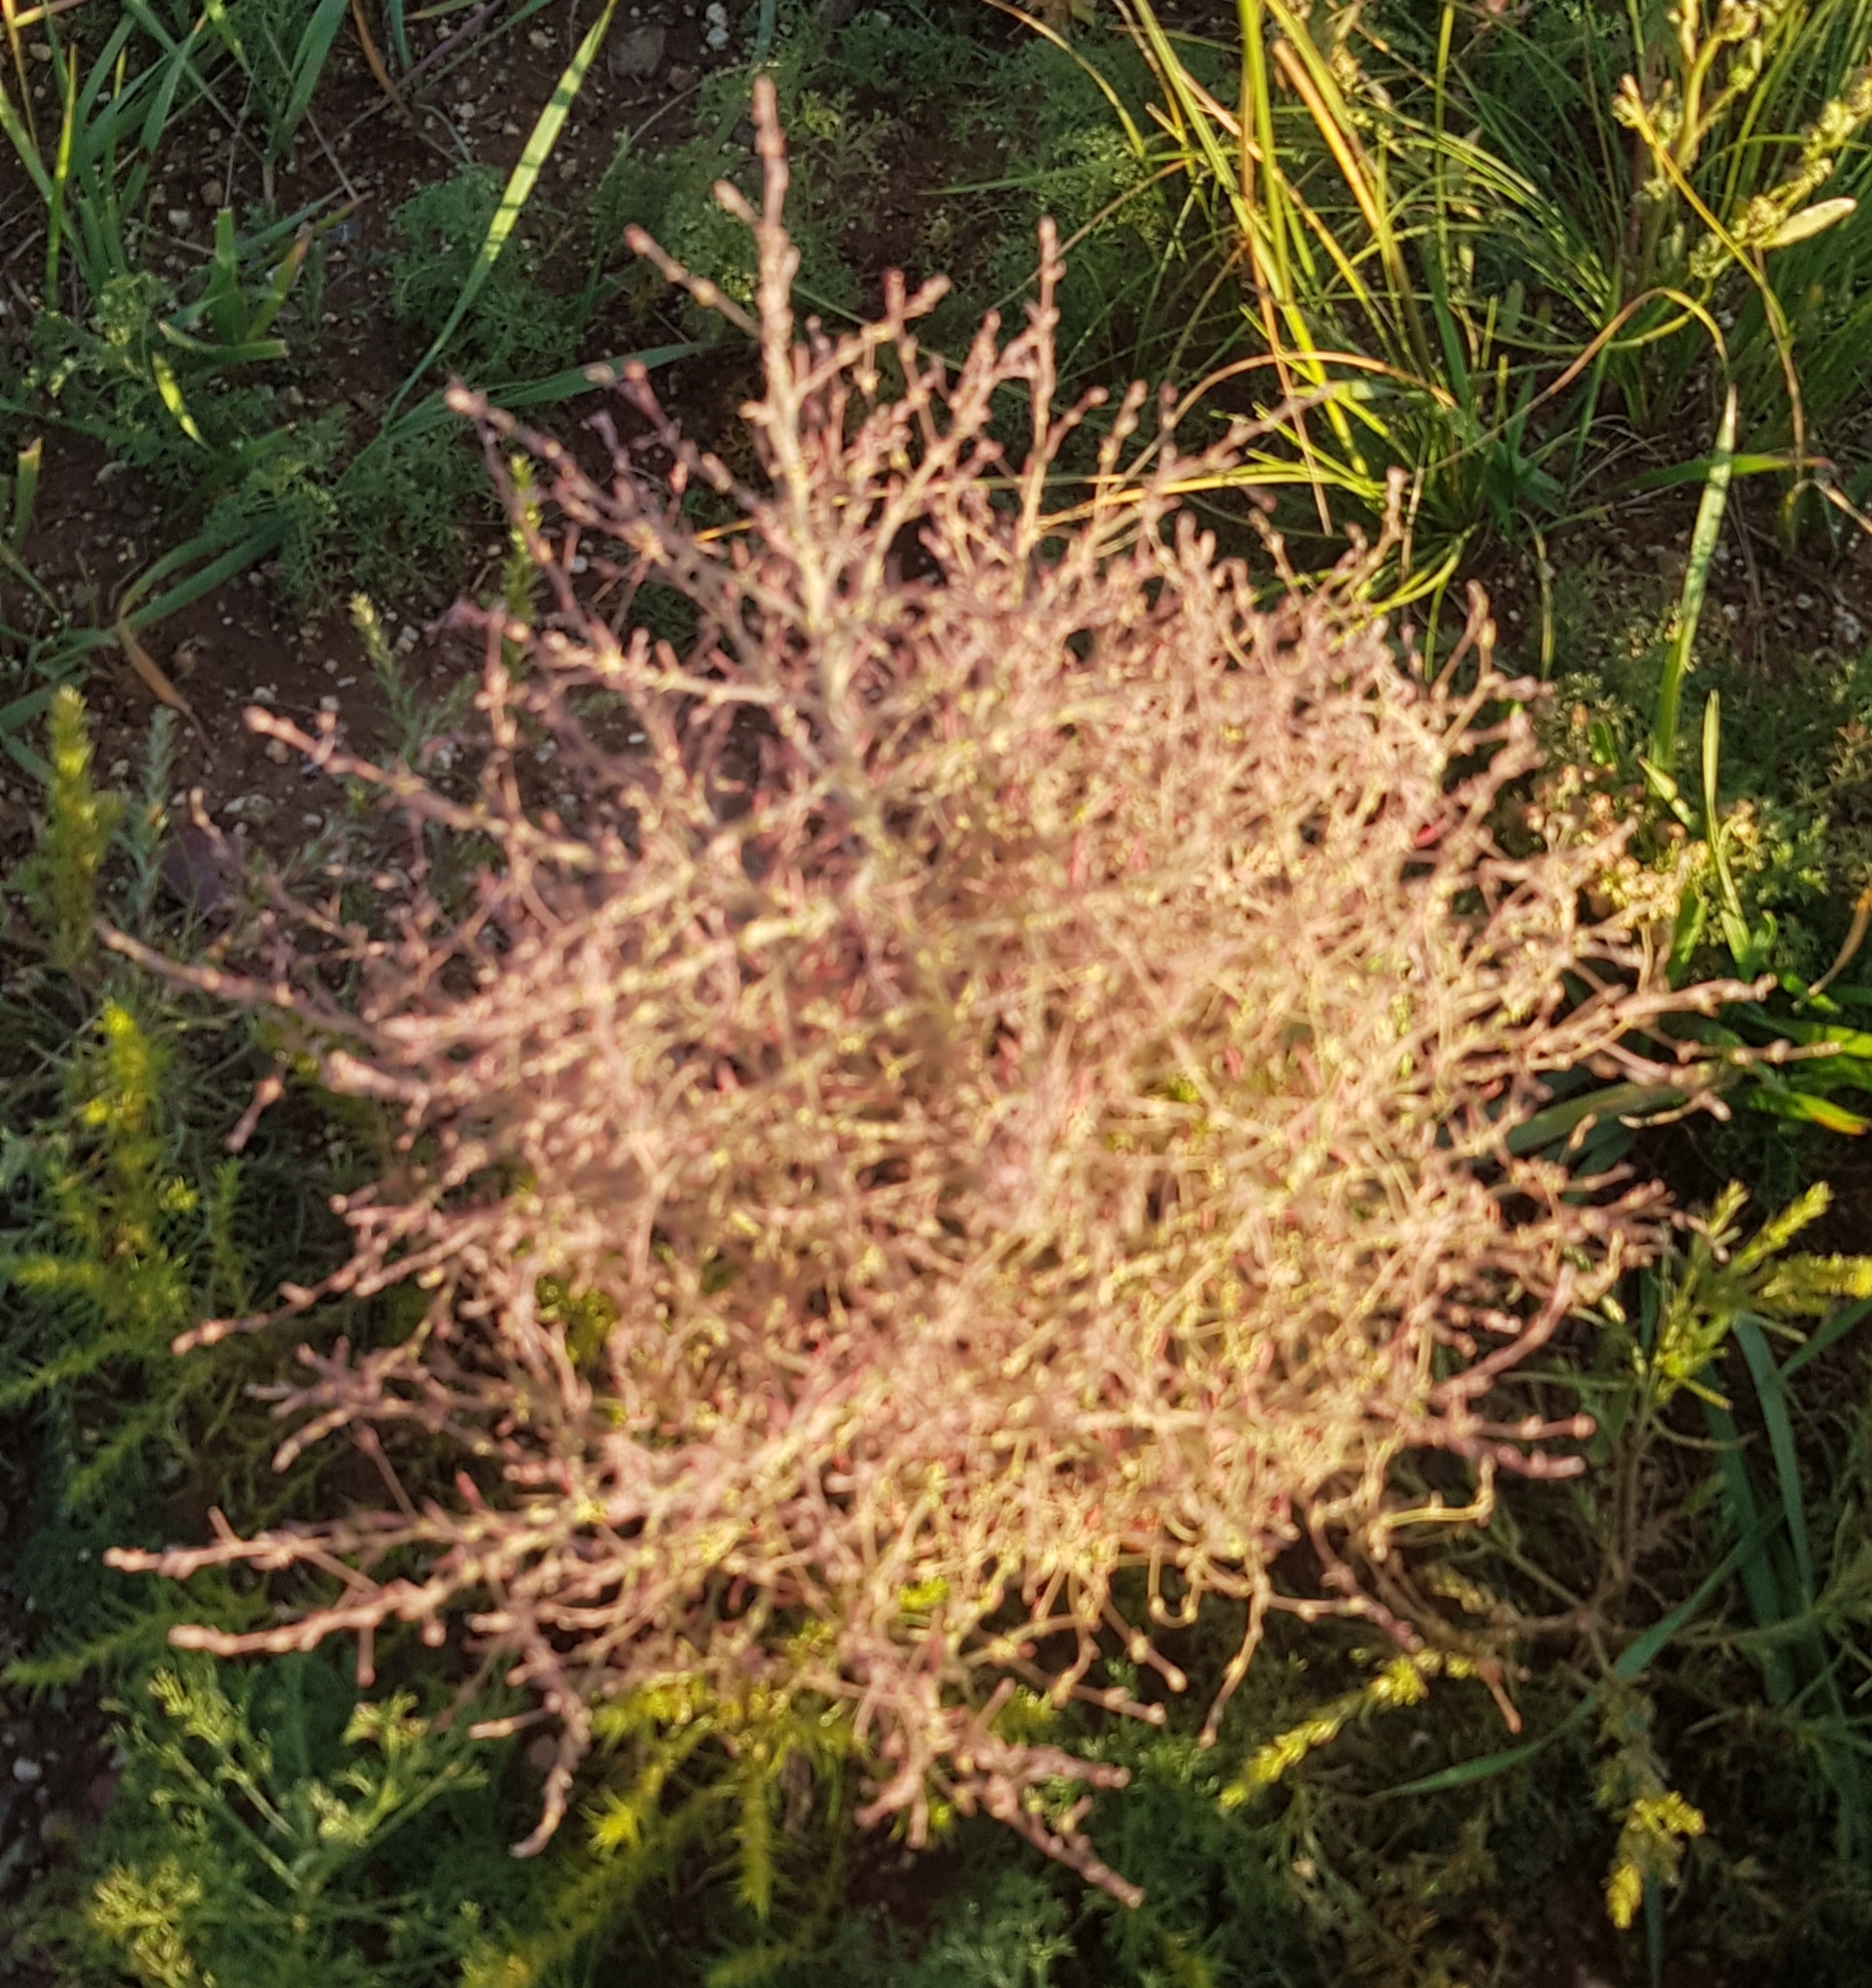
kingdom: Plantae
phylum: Tracheophyta
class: Magnoliopsida
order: Caryophyllales
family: Amaranthaceae
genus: Grubovia
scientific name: Grubovia dasyphylla
